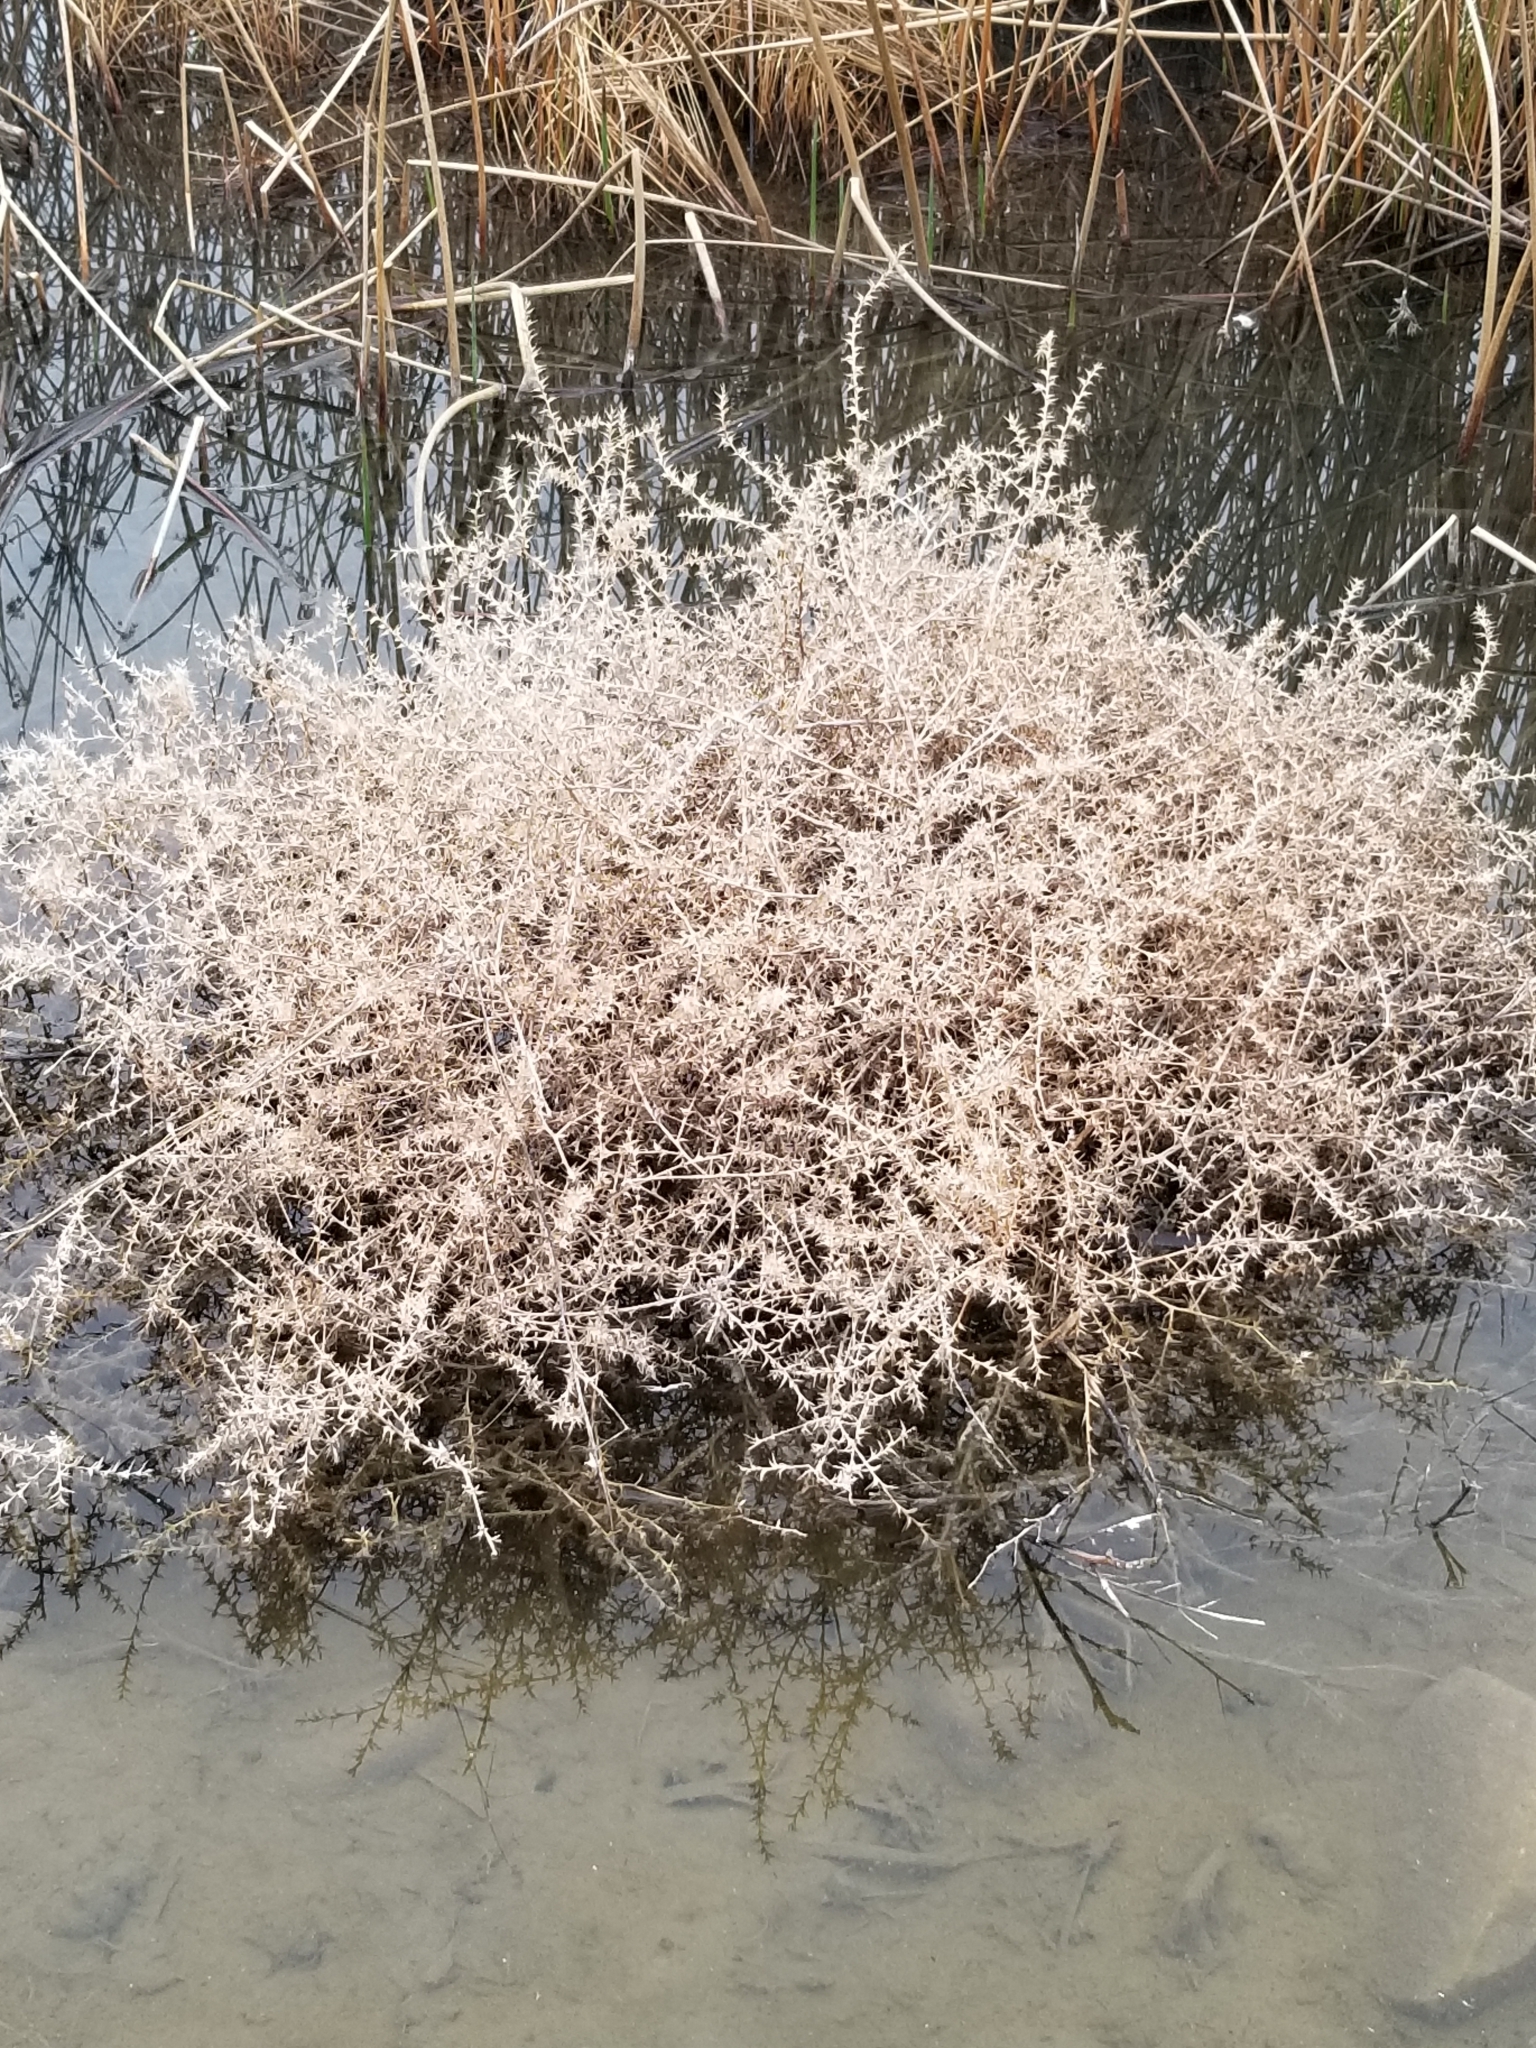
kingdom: Plantae
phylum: Tracheophyta
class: Magnoliopsida
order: Caryophyllales
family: Amaranthaceae
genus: Salsola
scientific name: Salsola tragus
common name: Prickly russian thistle
